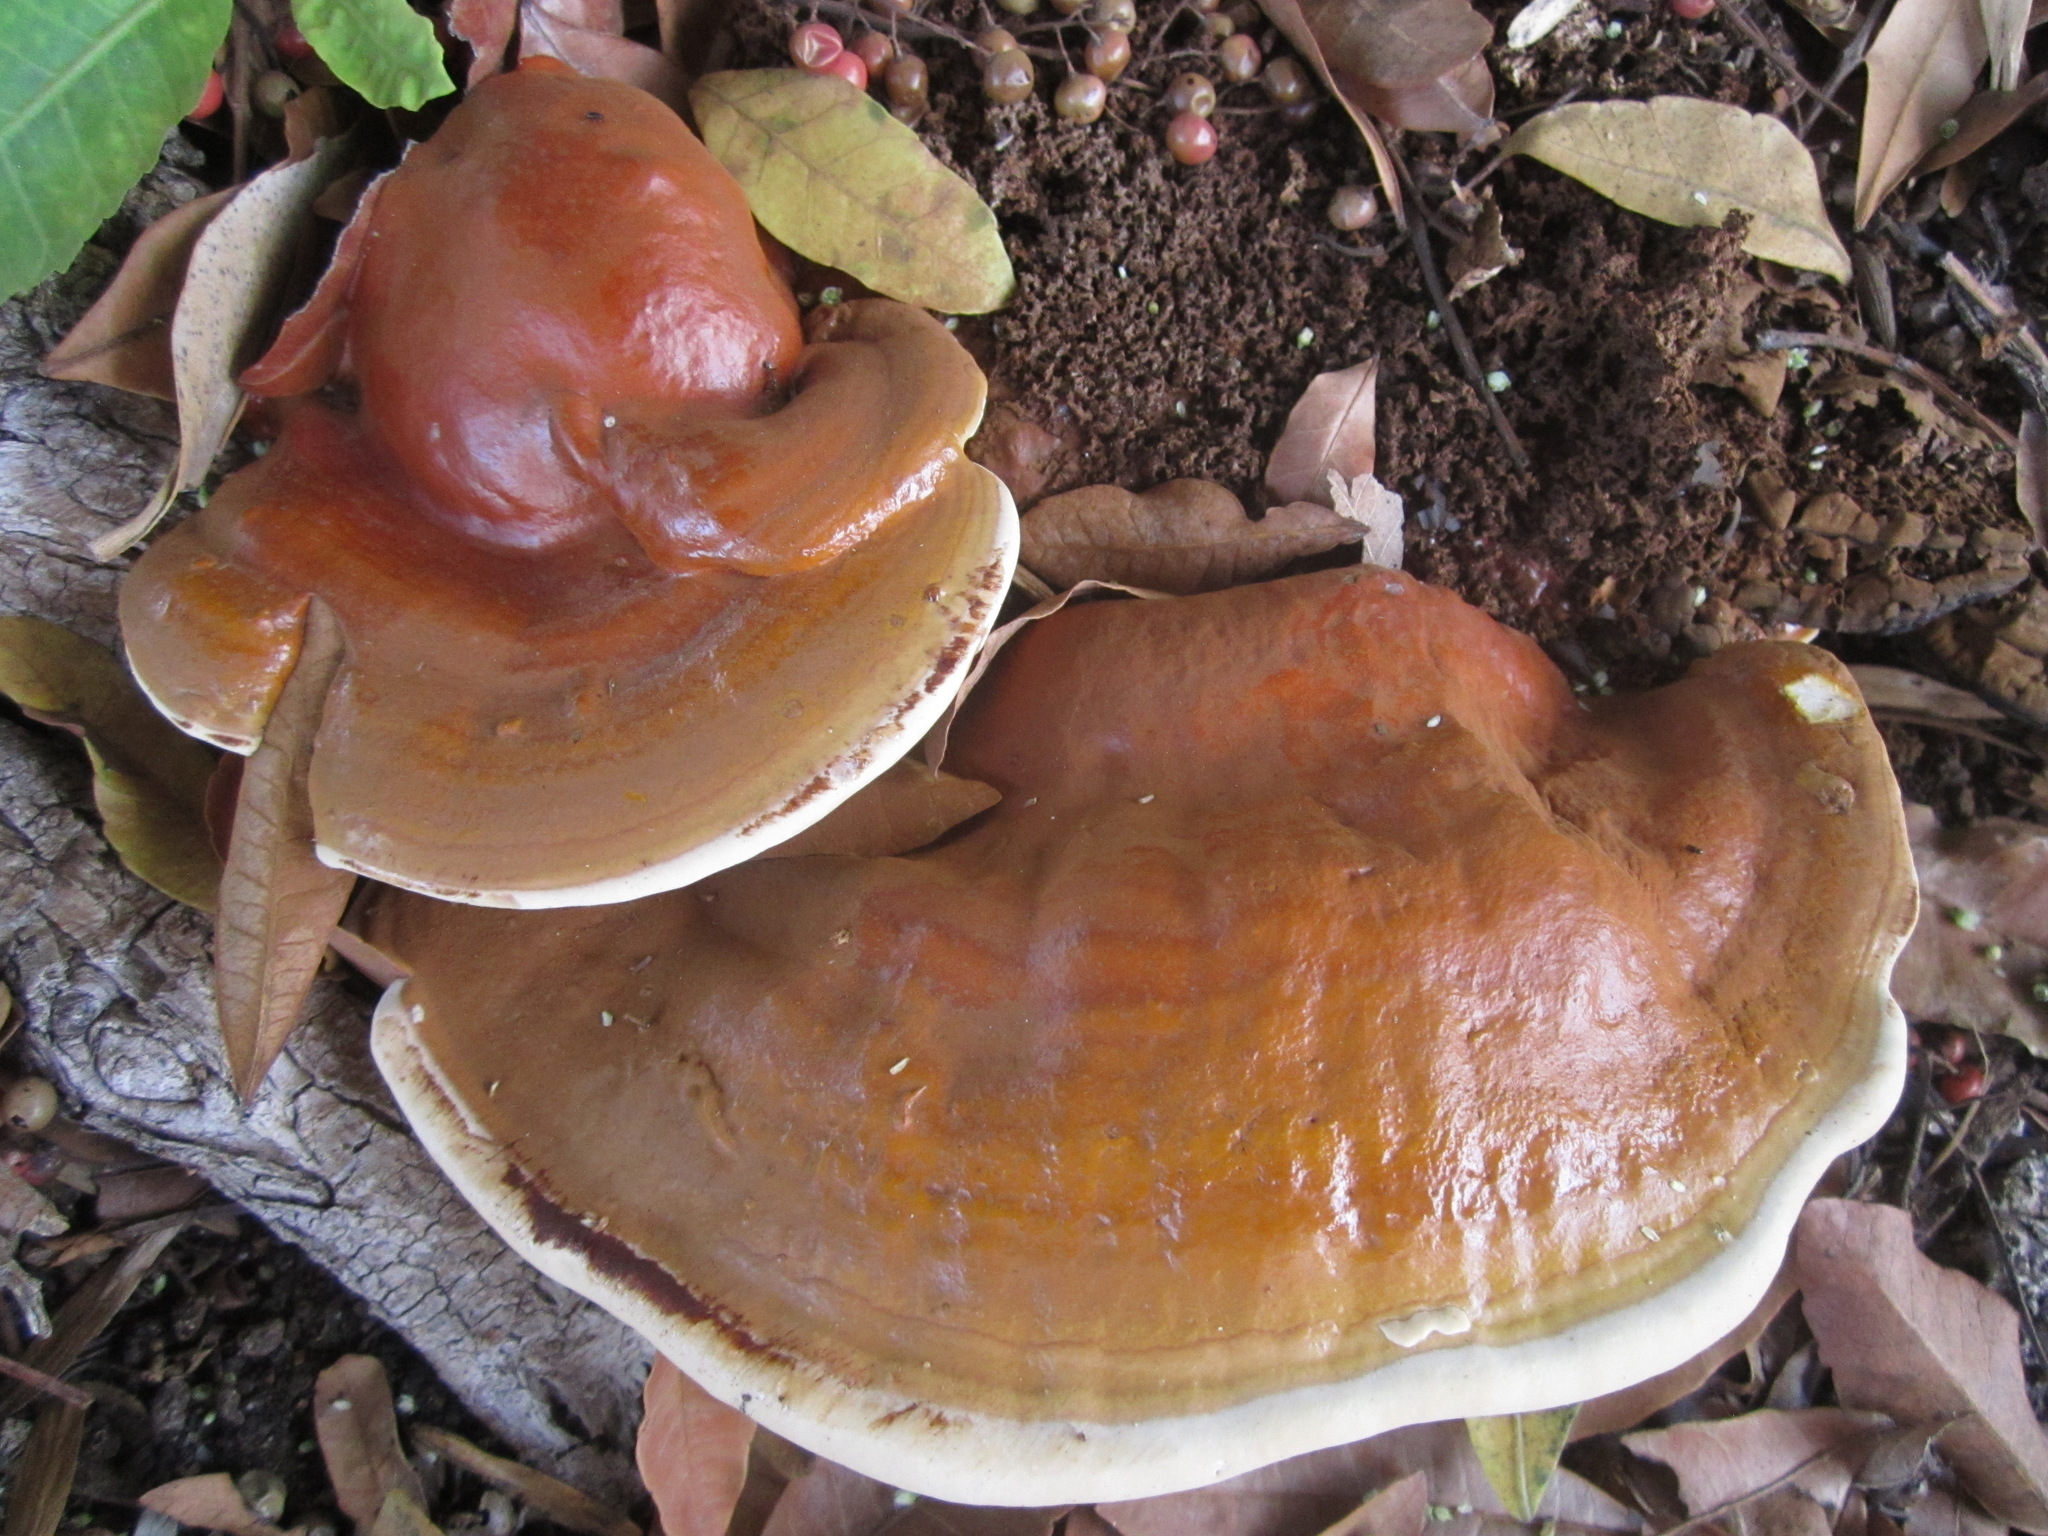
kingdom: Fungi
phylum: Basidiomycota
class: Agaricomycetes
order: Polyporales
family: Polyporaceae
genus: Ganoderma
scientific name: Ganoderma polychromum
